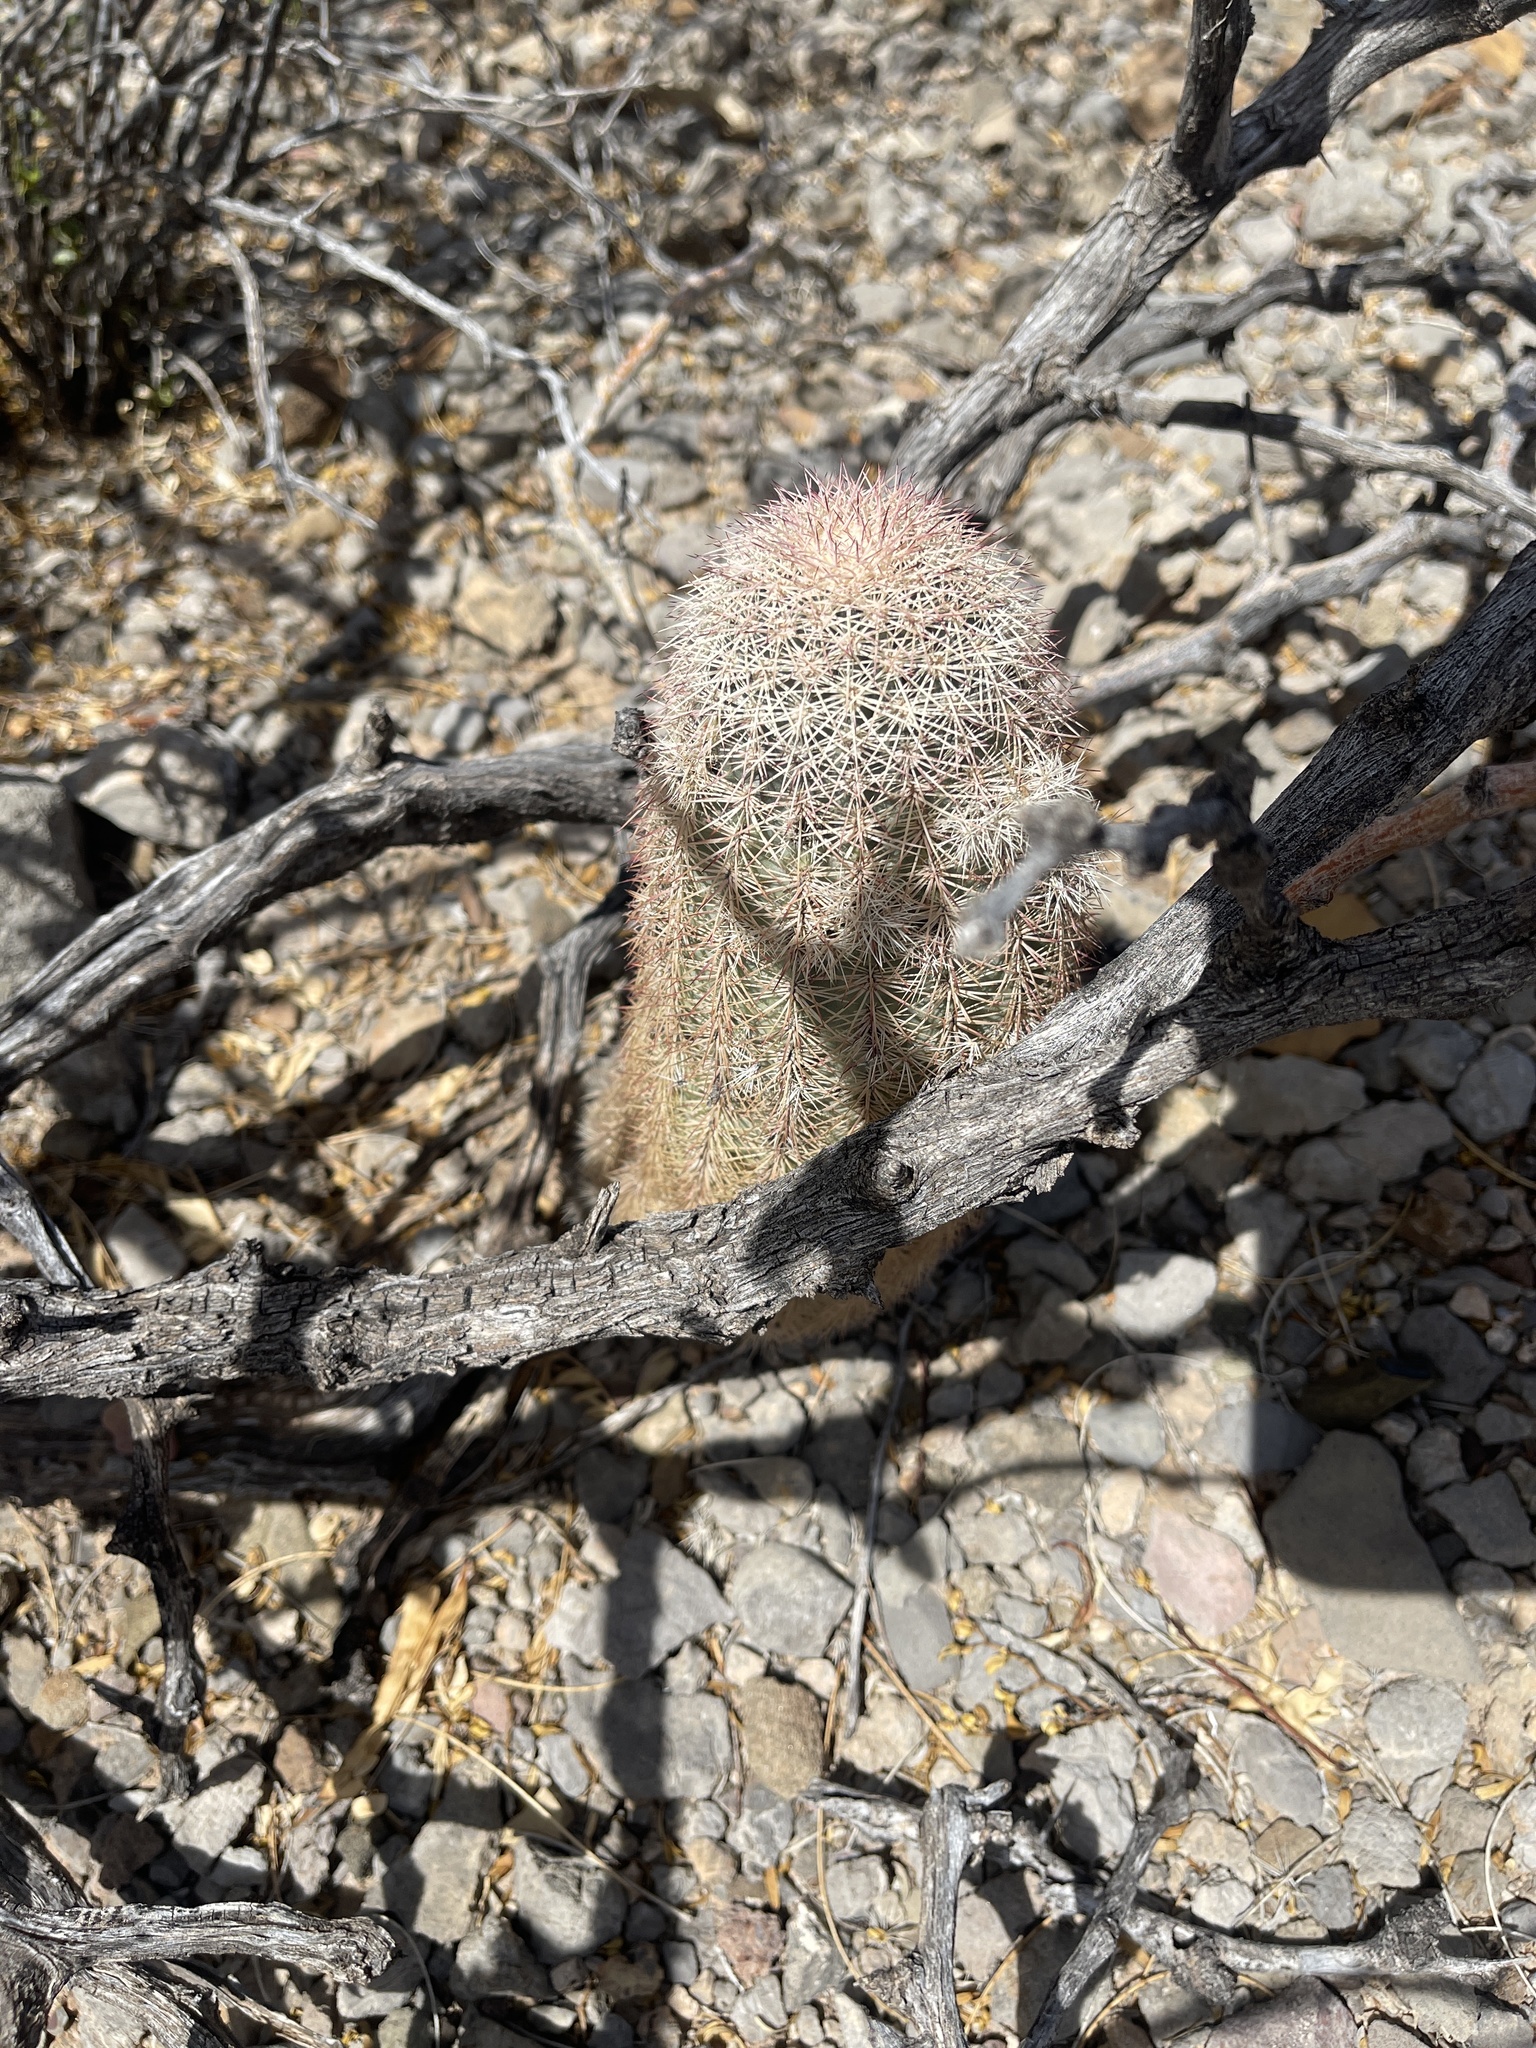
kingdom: Plantae
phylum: Tracheophyta
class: Magnoliopsida
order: Caryophyllales
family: Cactaceae
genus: Echinocereus
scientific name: Echinocereus dasyacanthus
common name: Spiny hedgehog cactus
